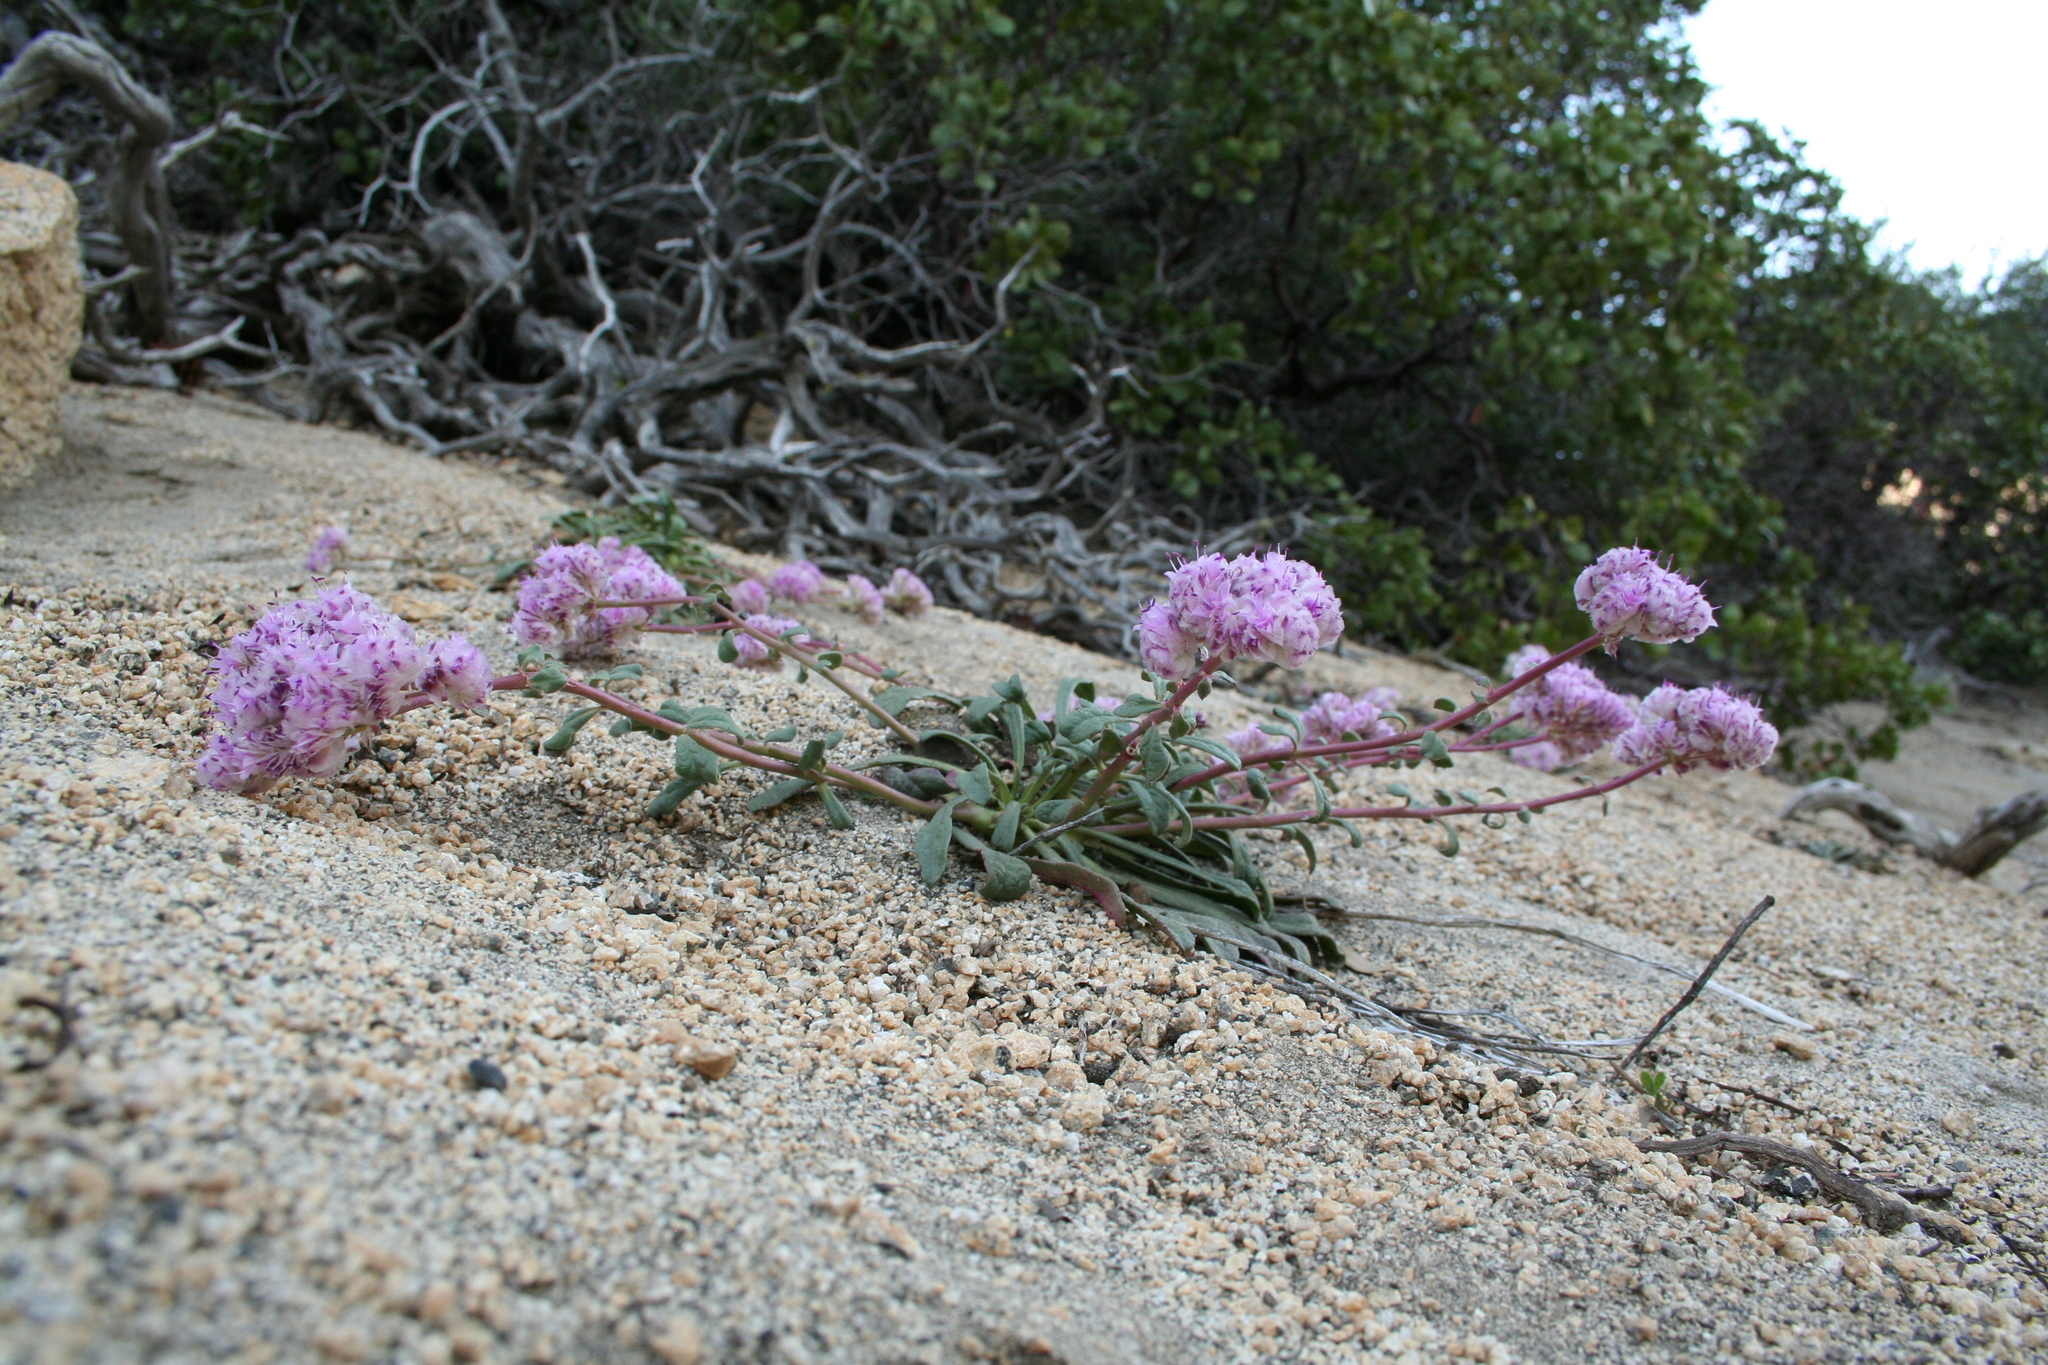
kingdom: Plantae
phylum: Tracheophyta
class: Magnoliopsida
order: Caryophyllales
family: Montiaceae
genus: Calyptridium
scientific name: Calyptridium monospermum
